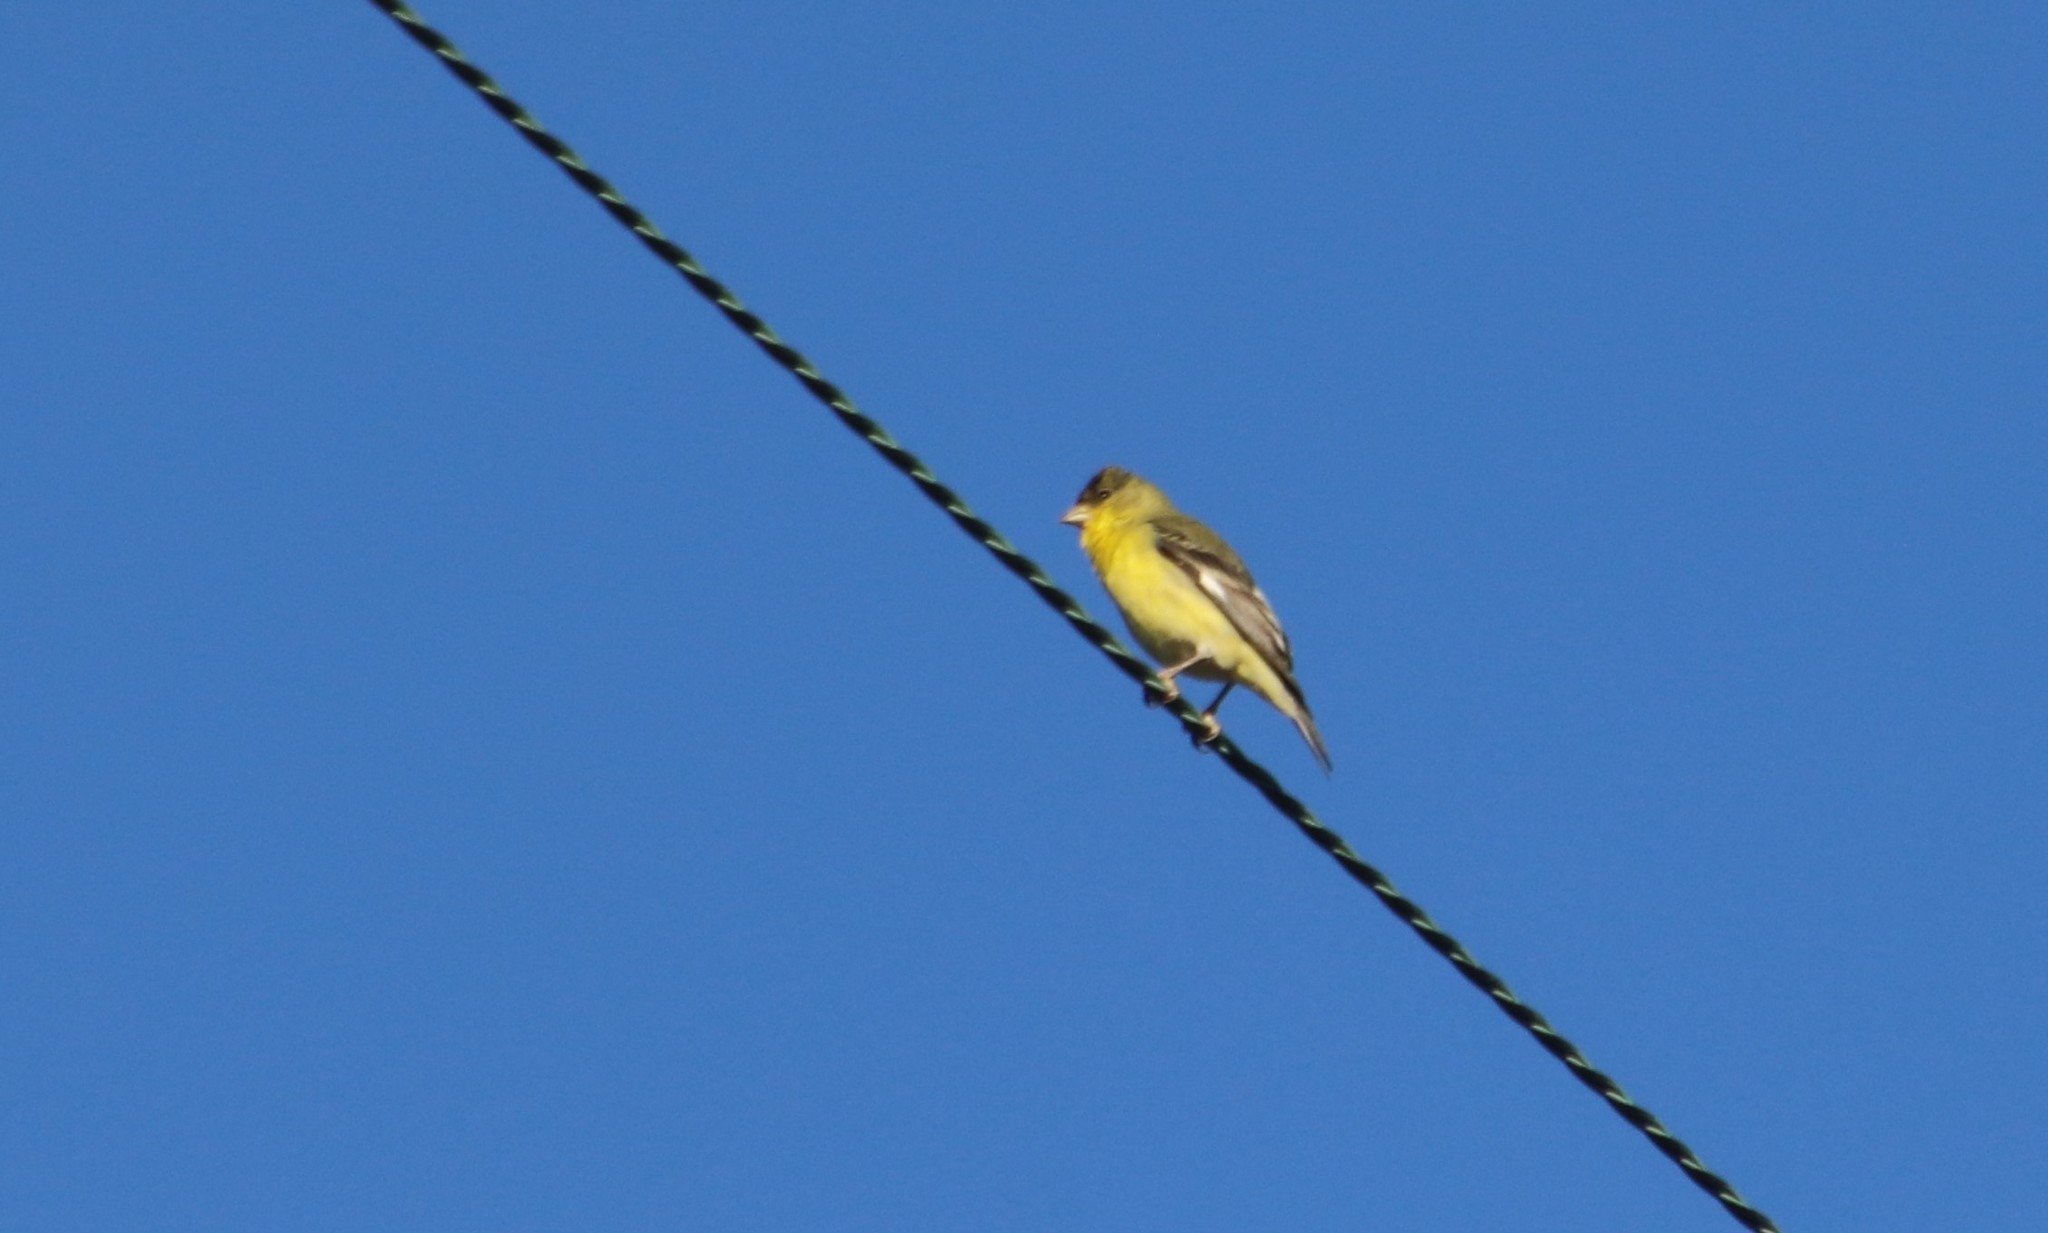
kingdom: Animalia
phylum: Chordata
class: Aves
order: Passeriformes
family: Fringillidae
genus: Spinus
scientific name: Spinus psaltria
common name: Lesser goldfinch
